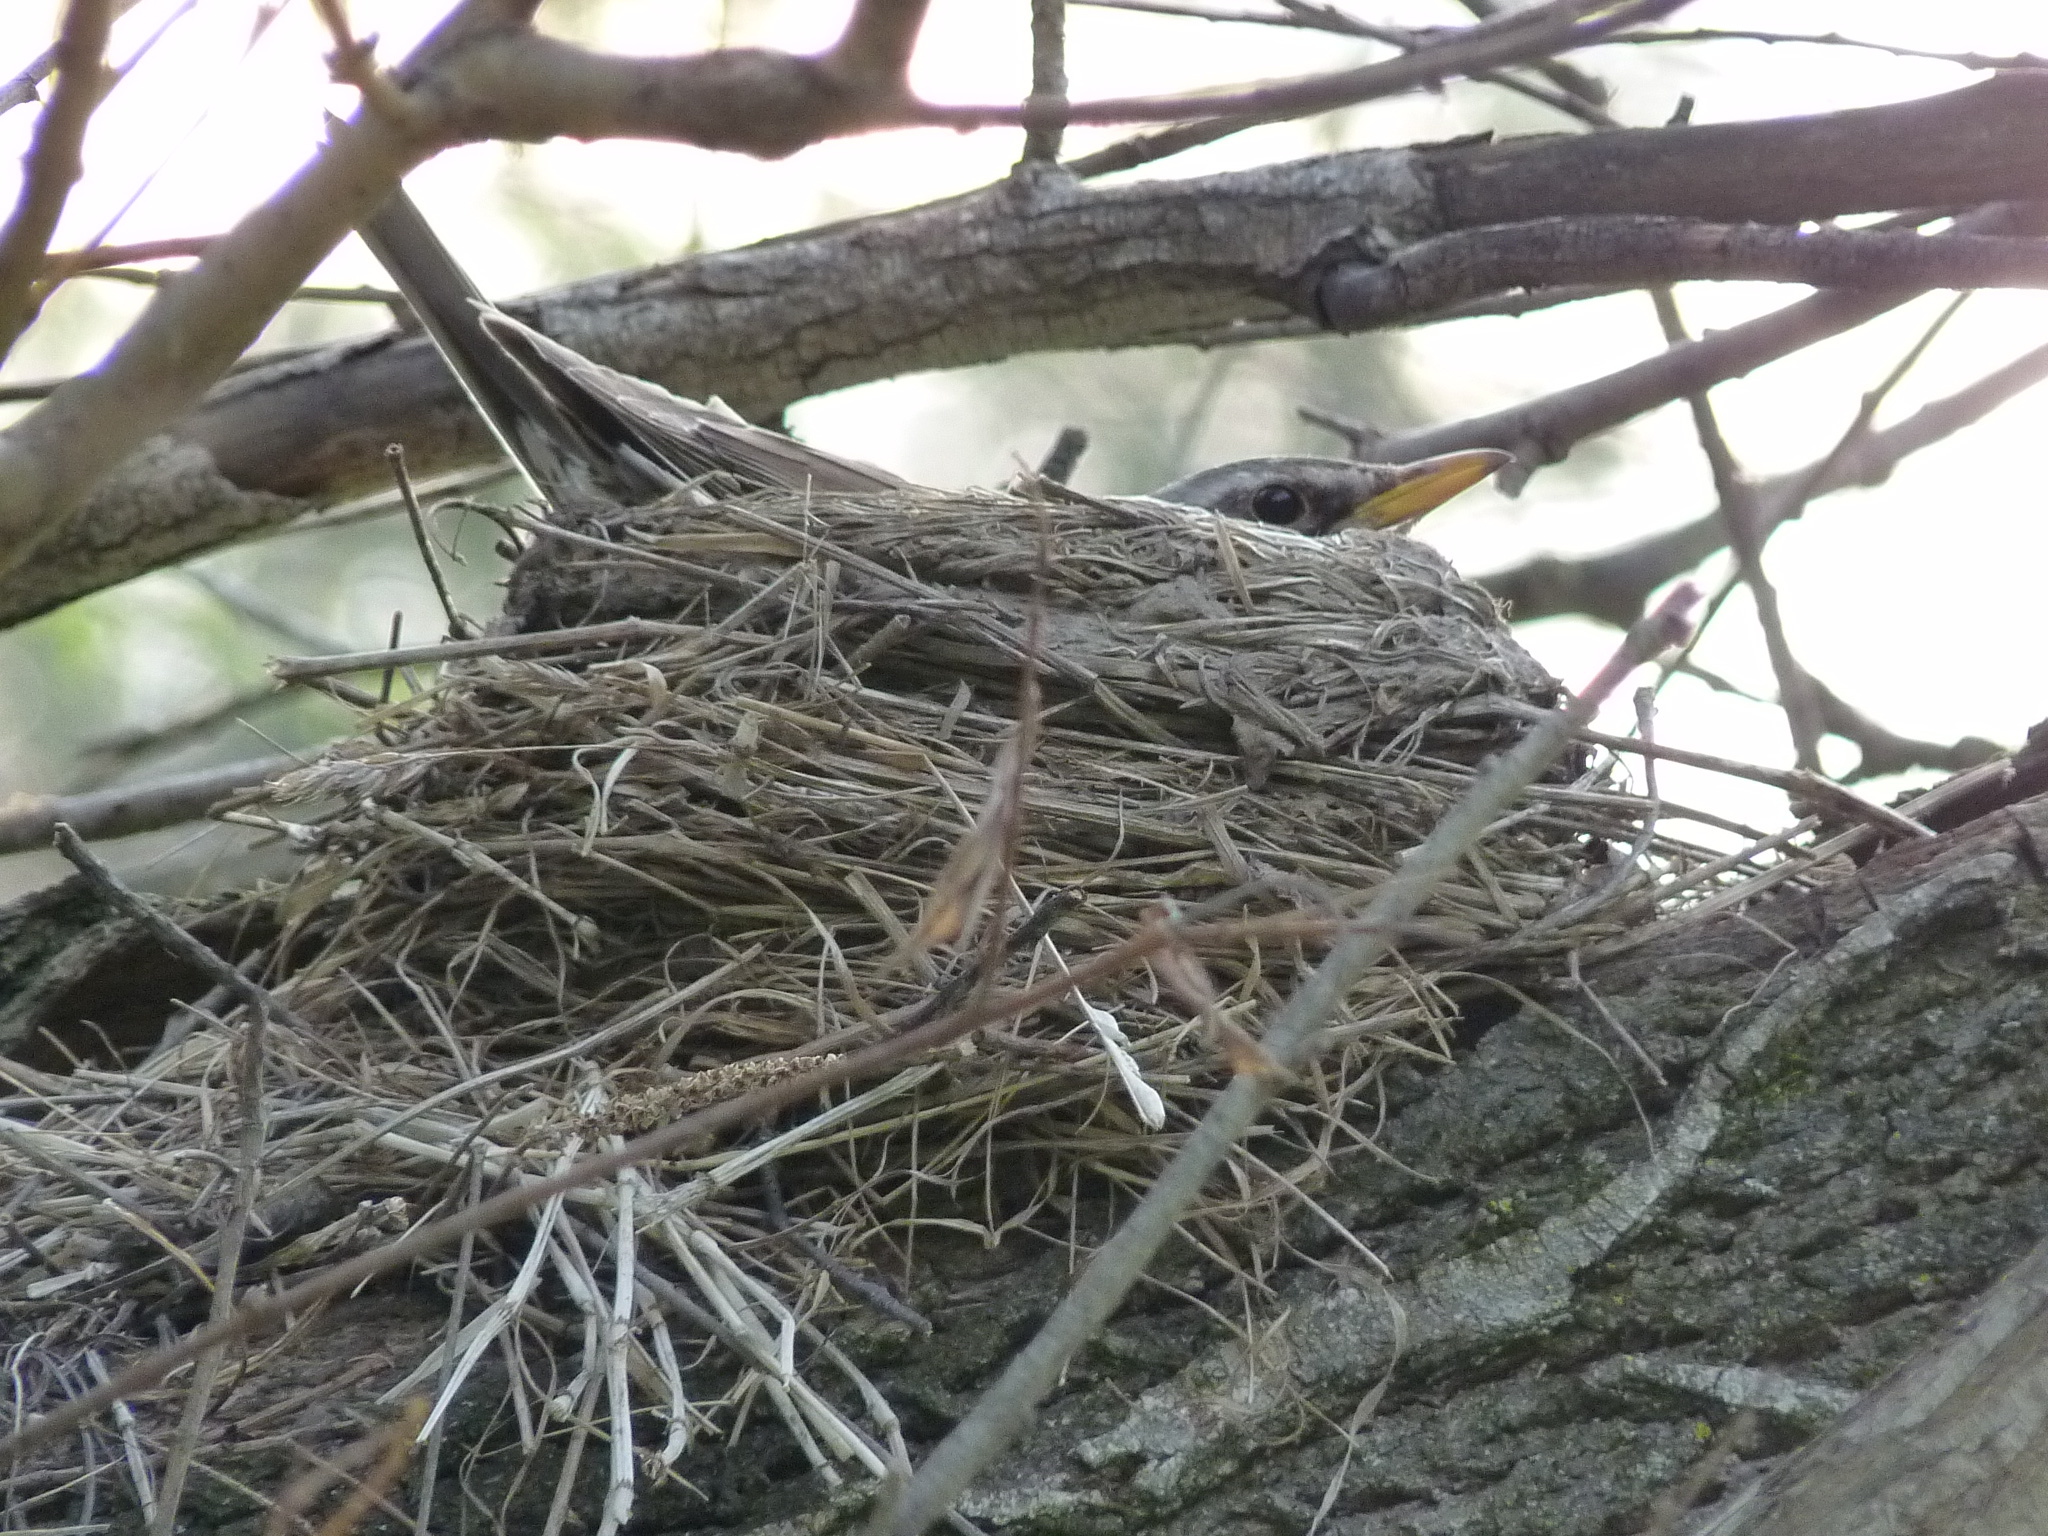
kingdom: Animalia
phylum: Chordata
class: Aves
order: Passeriformes
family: Turdidae
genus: Turdus
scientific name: Turdus pilaris
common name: Fieldfare
